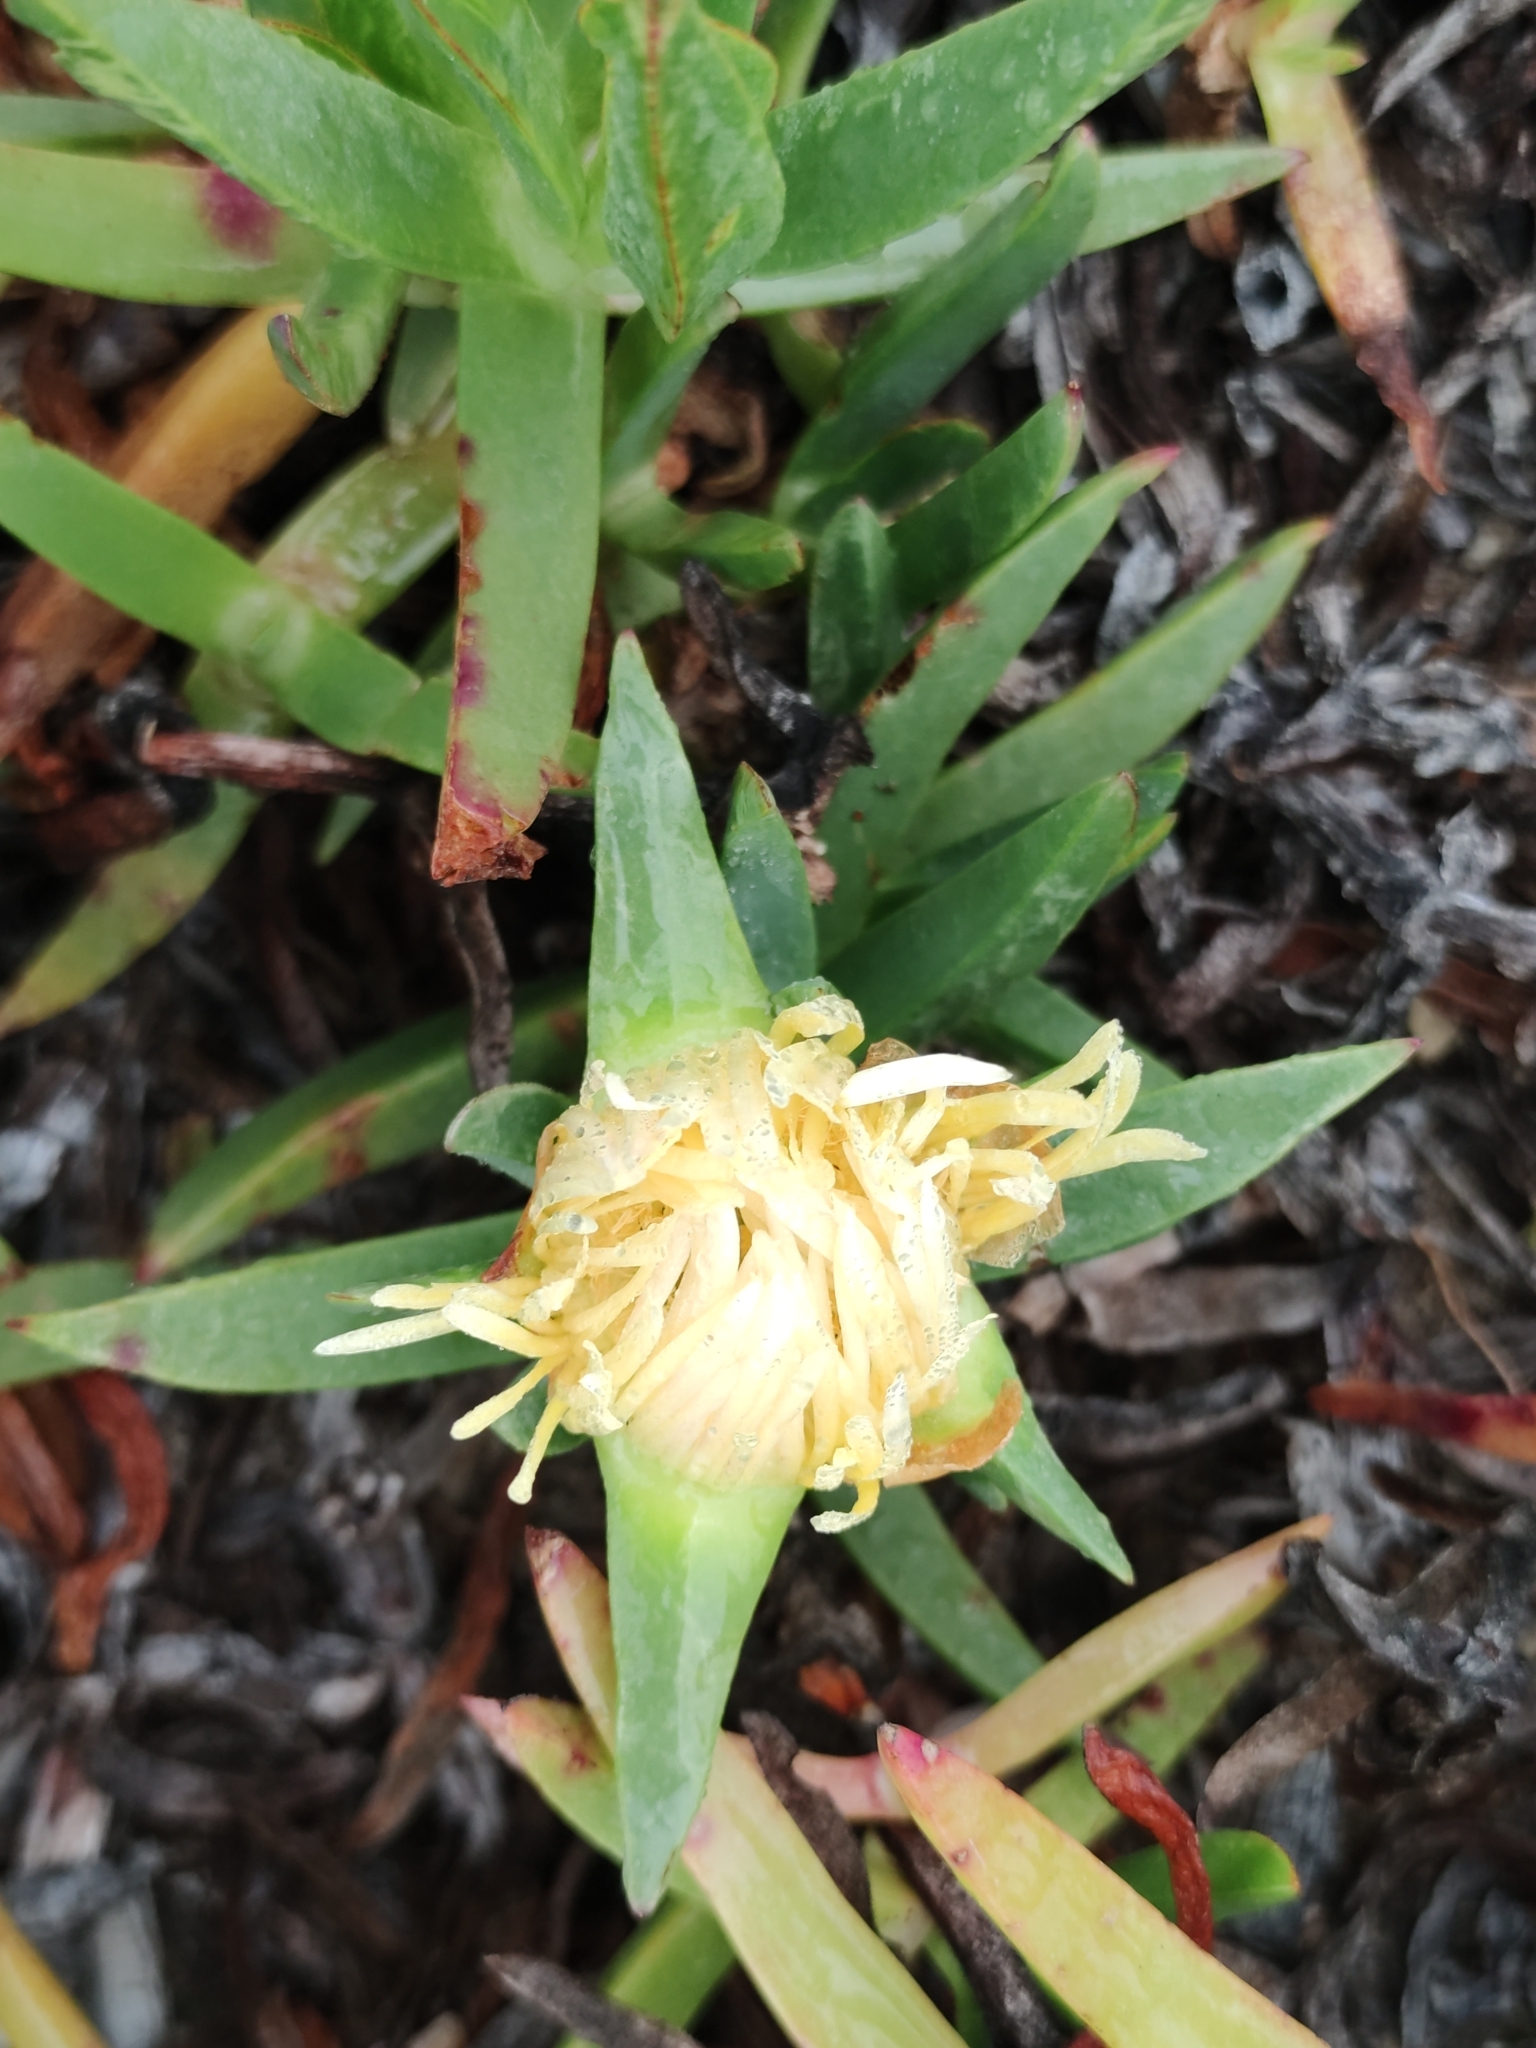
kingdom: Plantae
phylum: Tracheophyta
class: Magnoliopsida
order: Caryophyllales
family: Aizoaceae
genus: Carpobrotus
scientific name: Carpobrotus edulis
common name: Hottentot-fig
